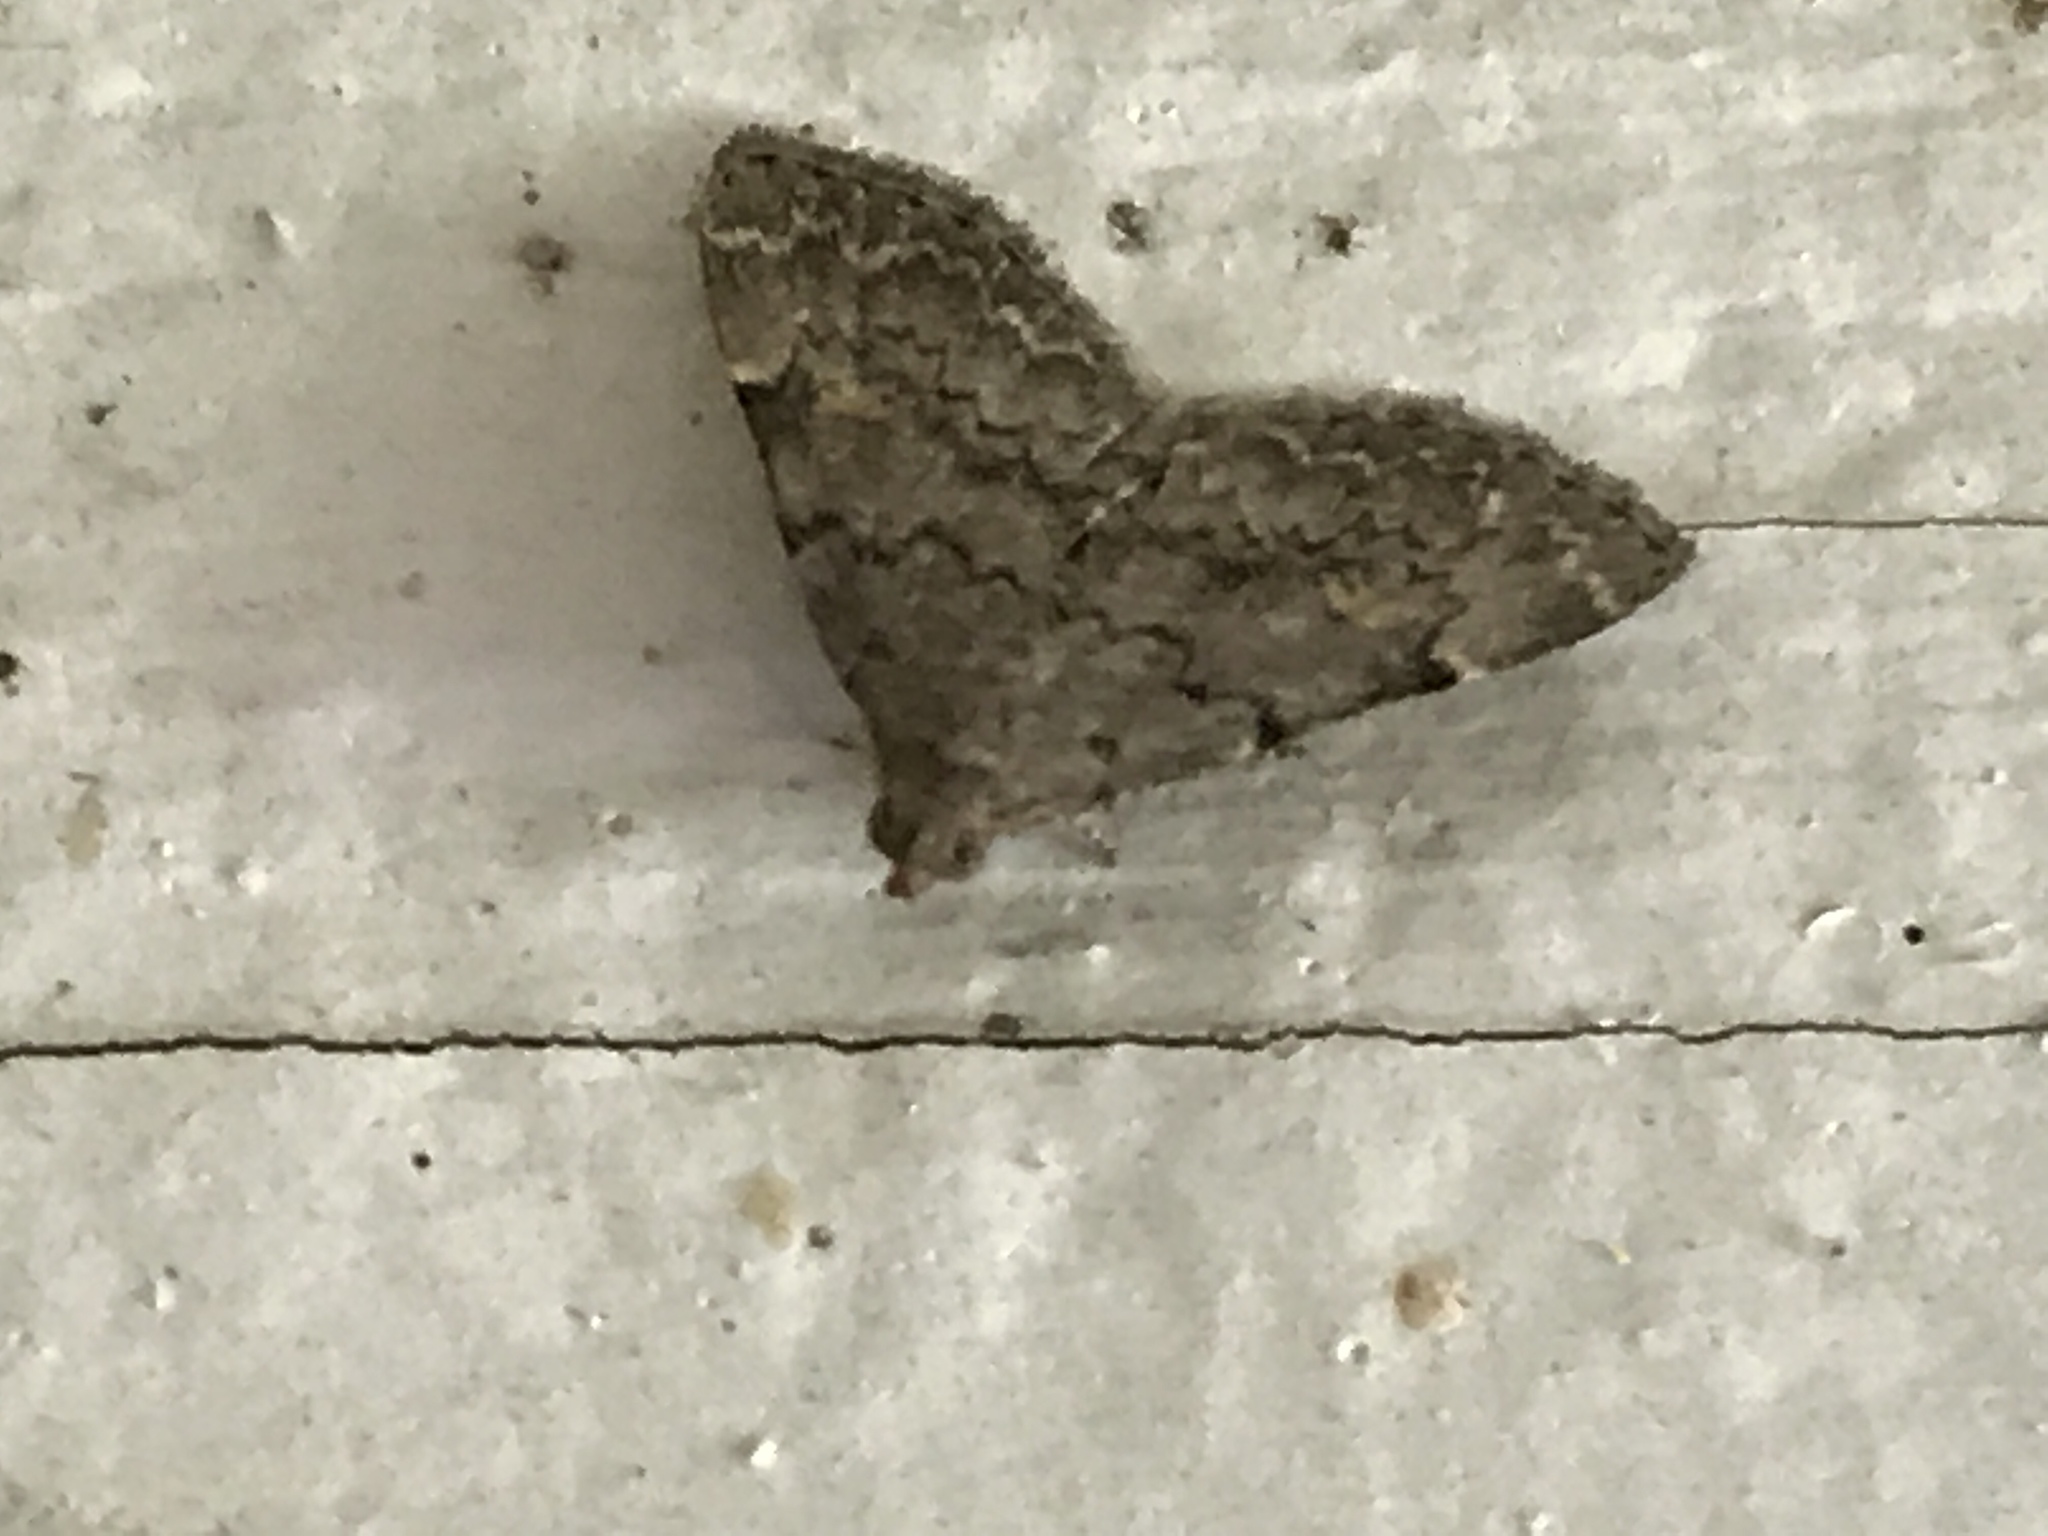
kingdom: Animalia
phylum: Arthropoda
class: Insecta
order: Lepidoptera
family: Erebidae
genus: Idia
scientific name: Idia aemula
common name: Common idia moth
